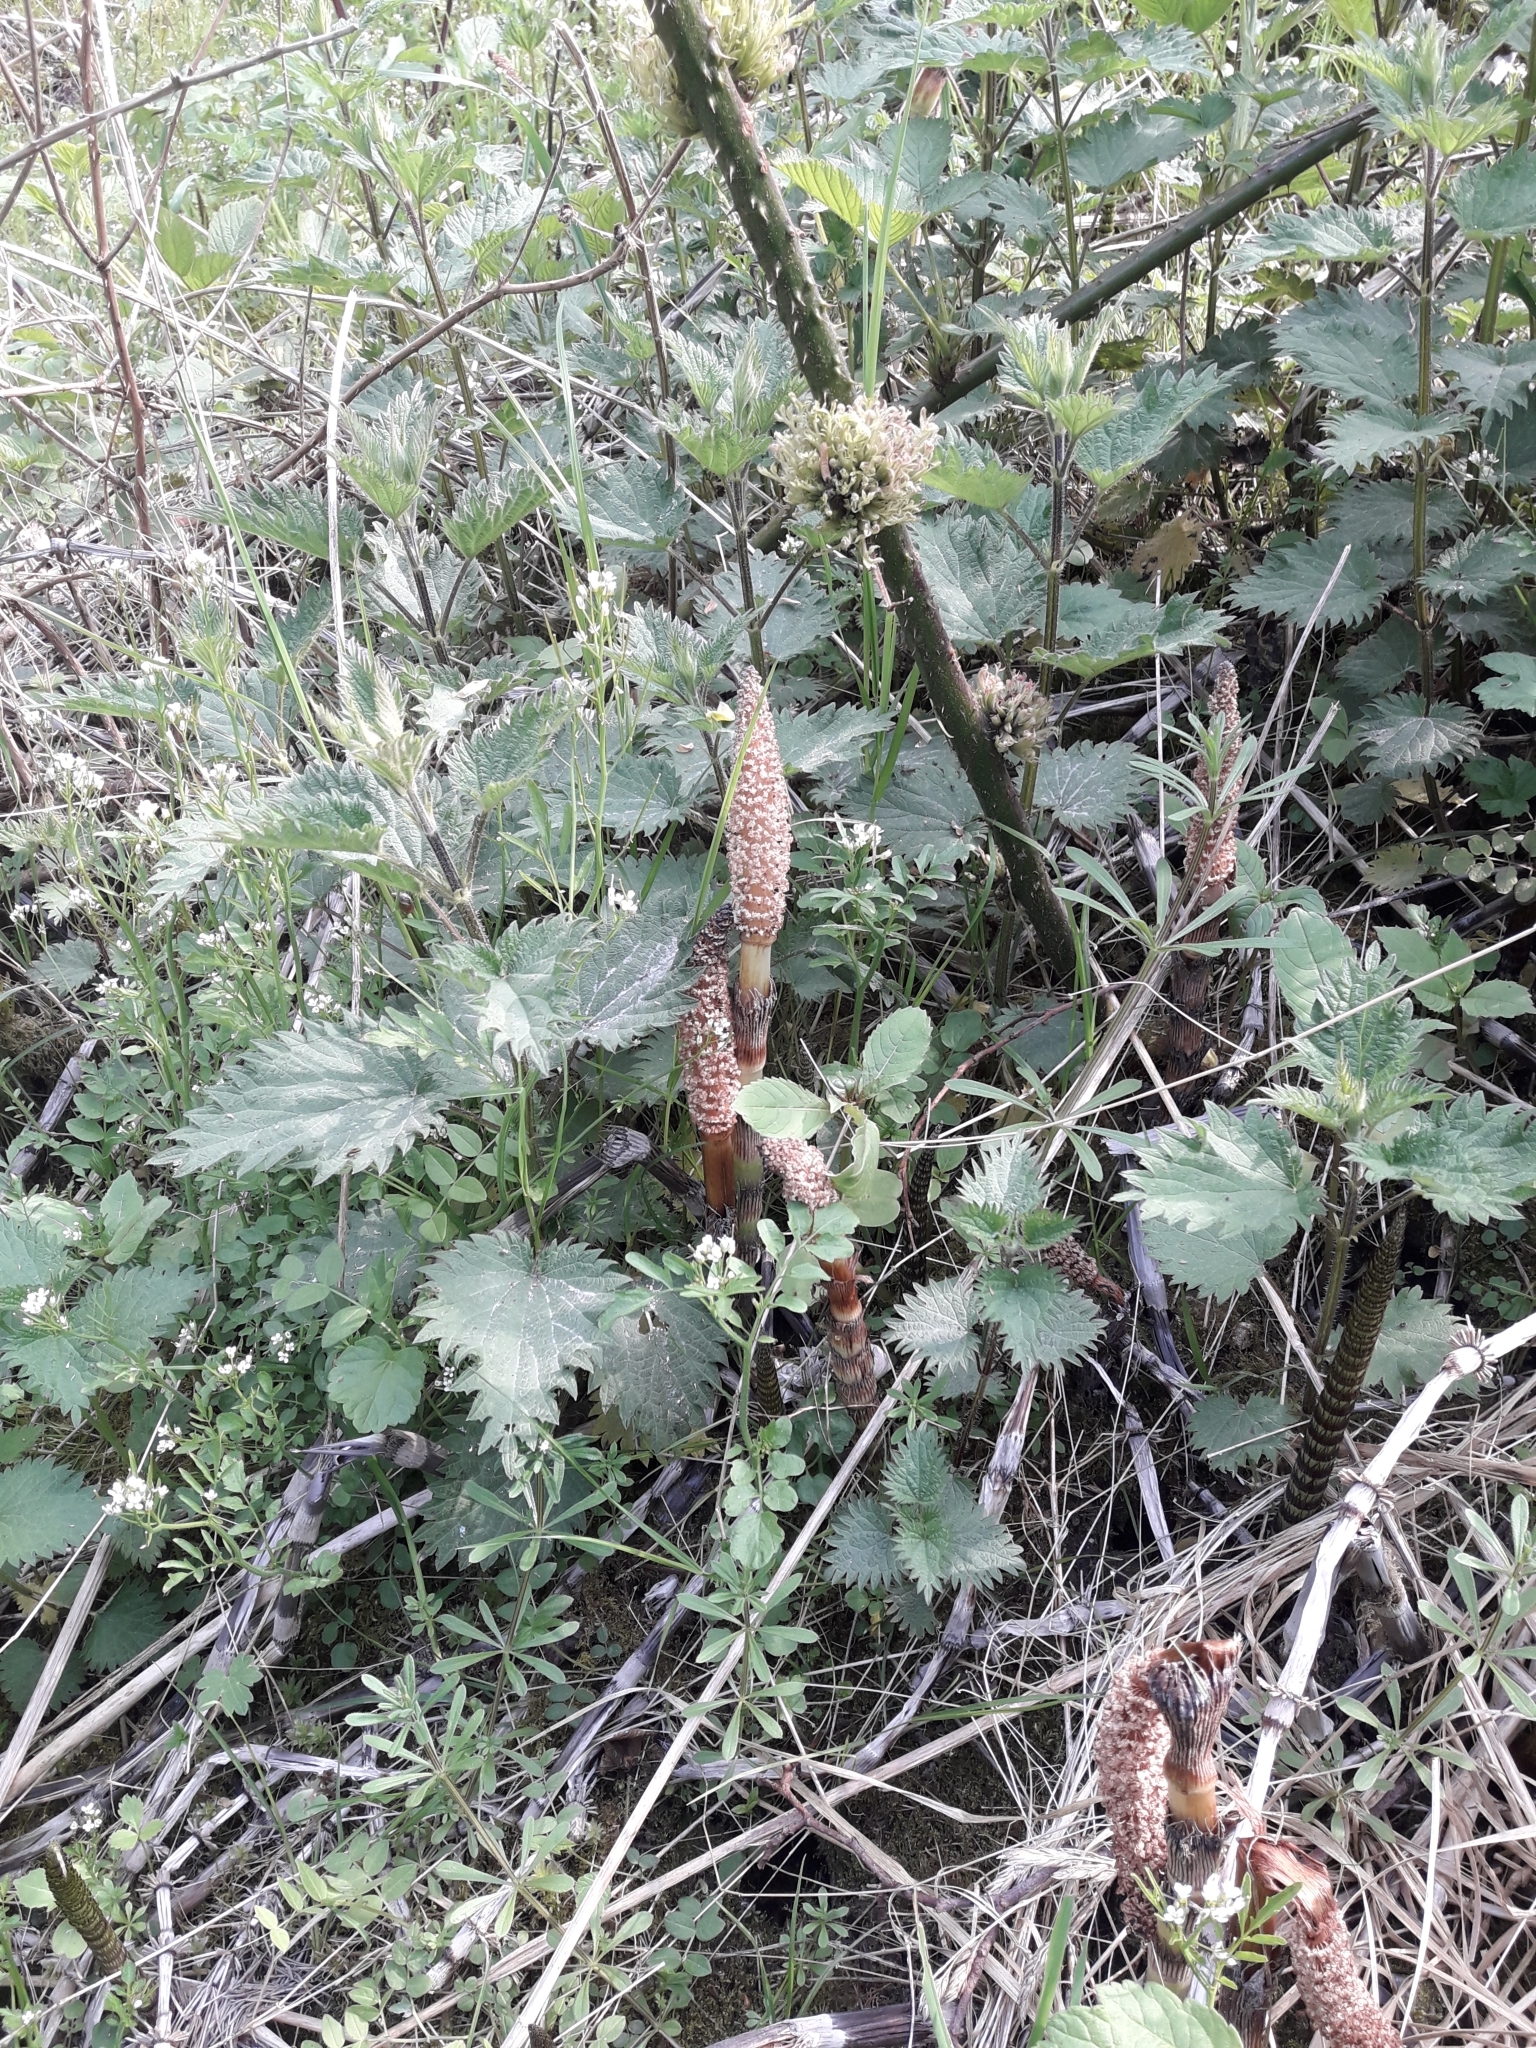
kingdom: Plantae
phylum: Tracheophyta
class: Polypodiopsida
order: Equisetales
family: Equisetaceae
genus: Equisetum
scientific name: Equisetum telmateia
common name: Great horsetail
